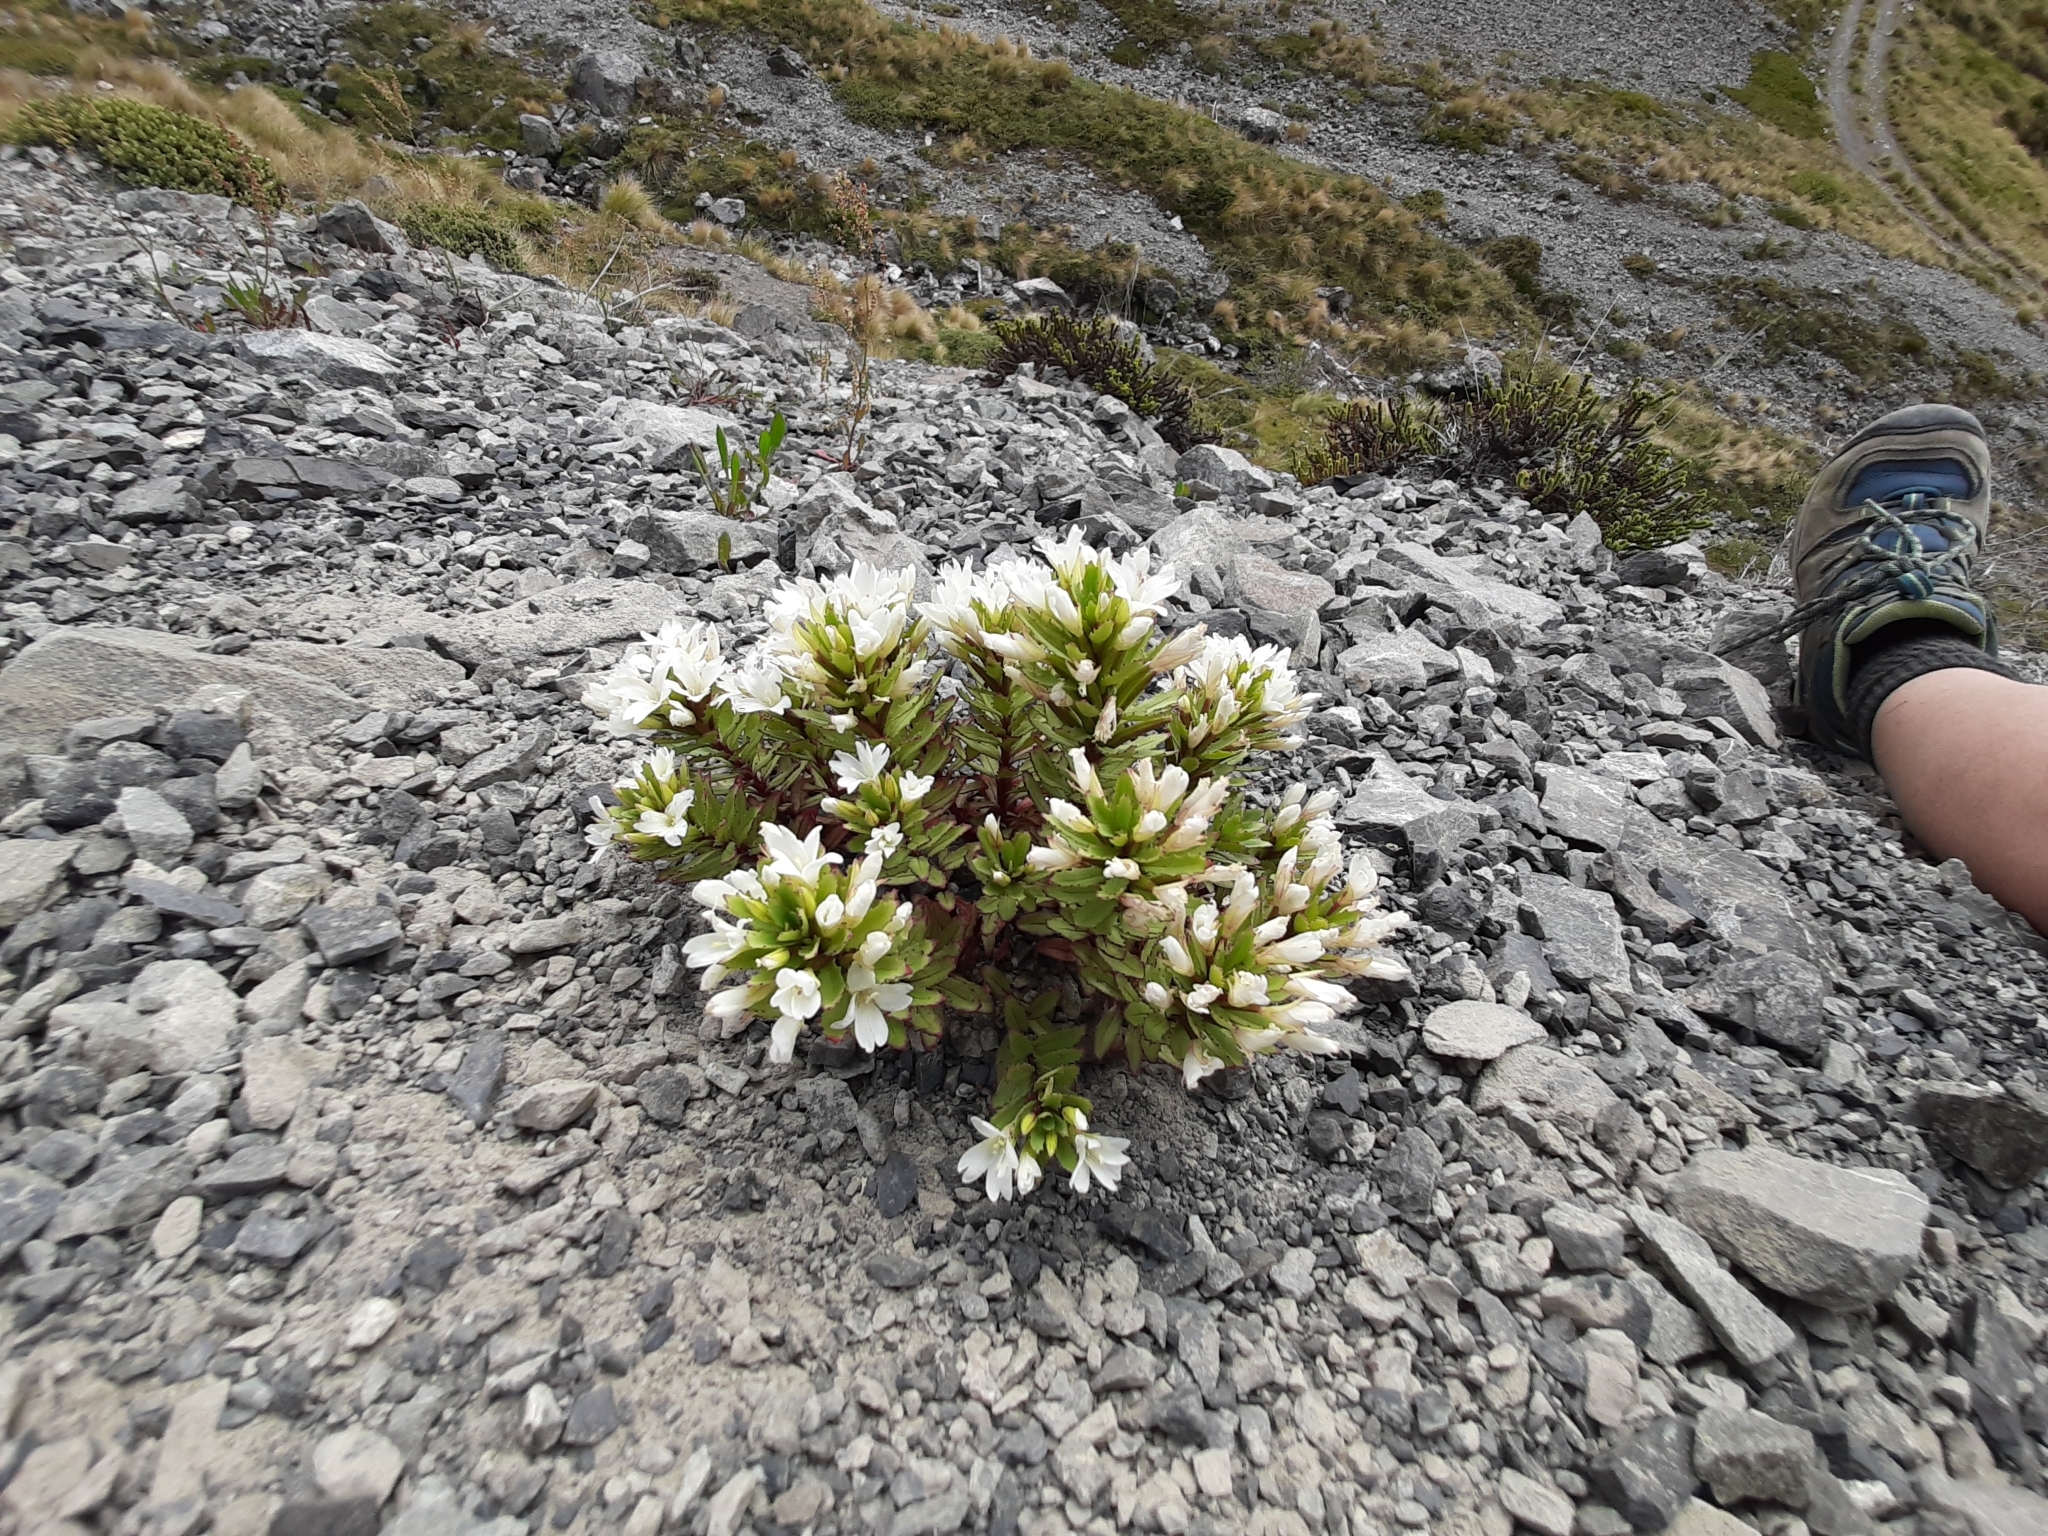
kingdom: Plantae
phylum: Tracheophyta
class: Magnoliopsida
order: Myrtales
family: Onagraceae
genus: Epilobium
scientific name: Epilobium pycnostachyum
